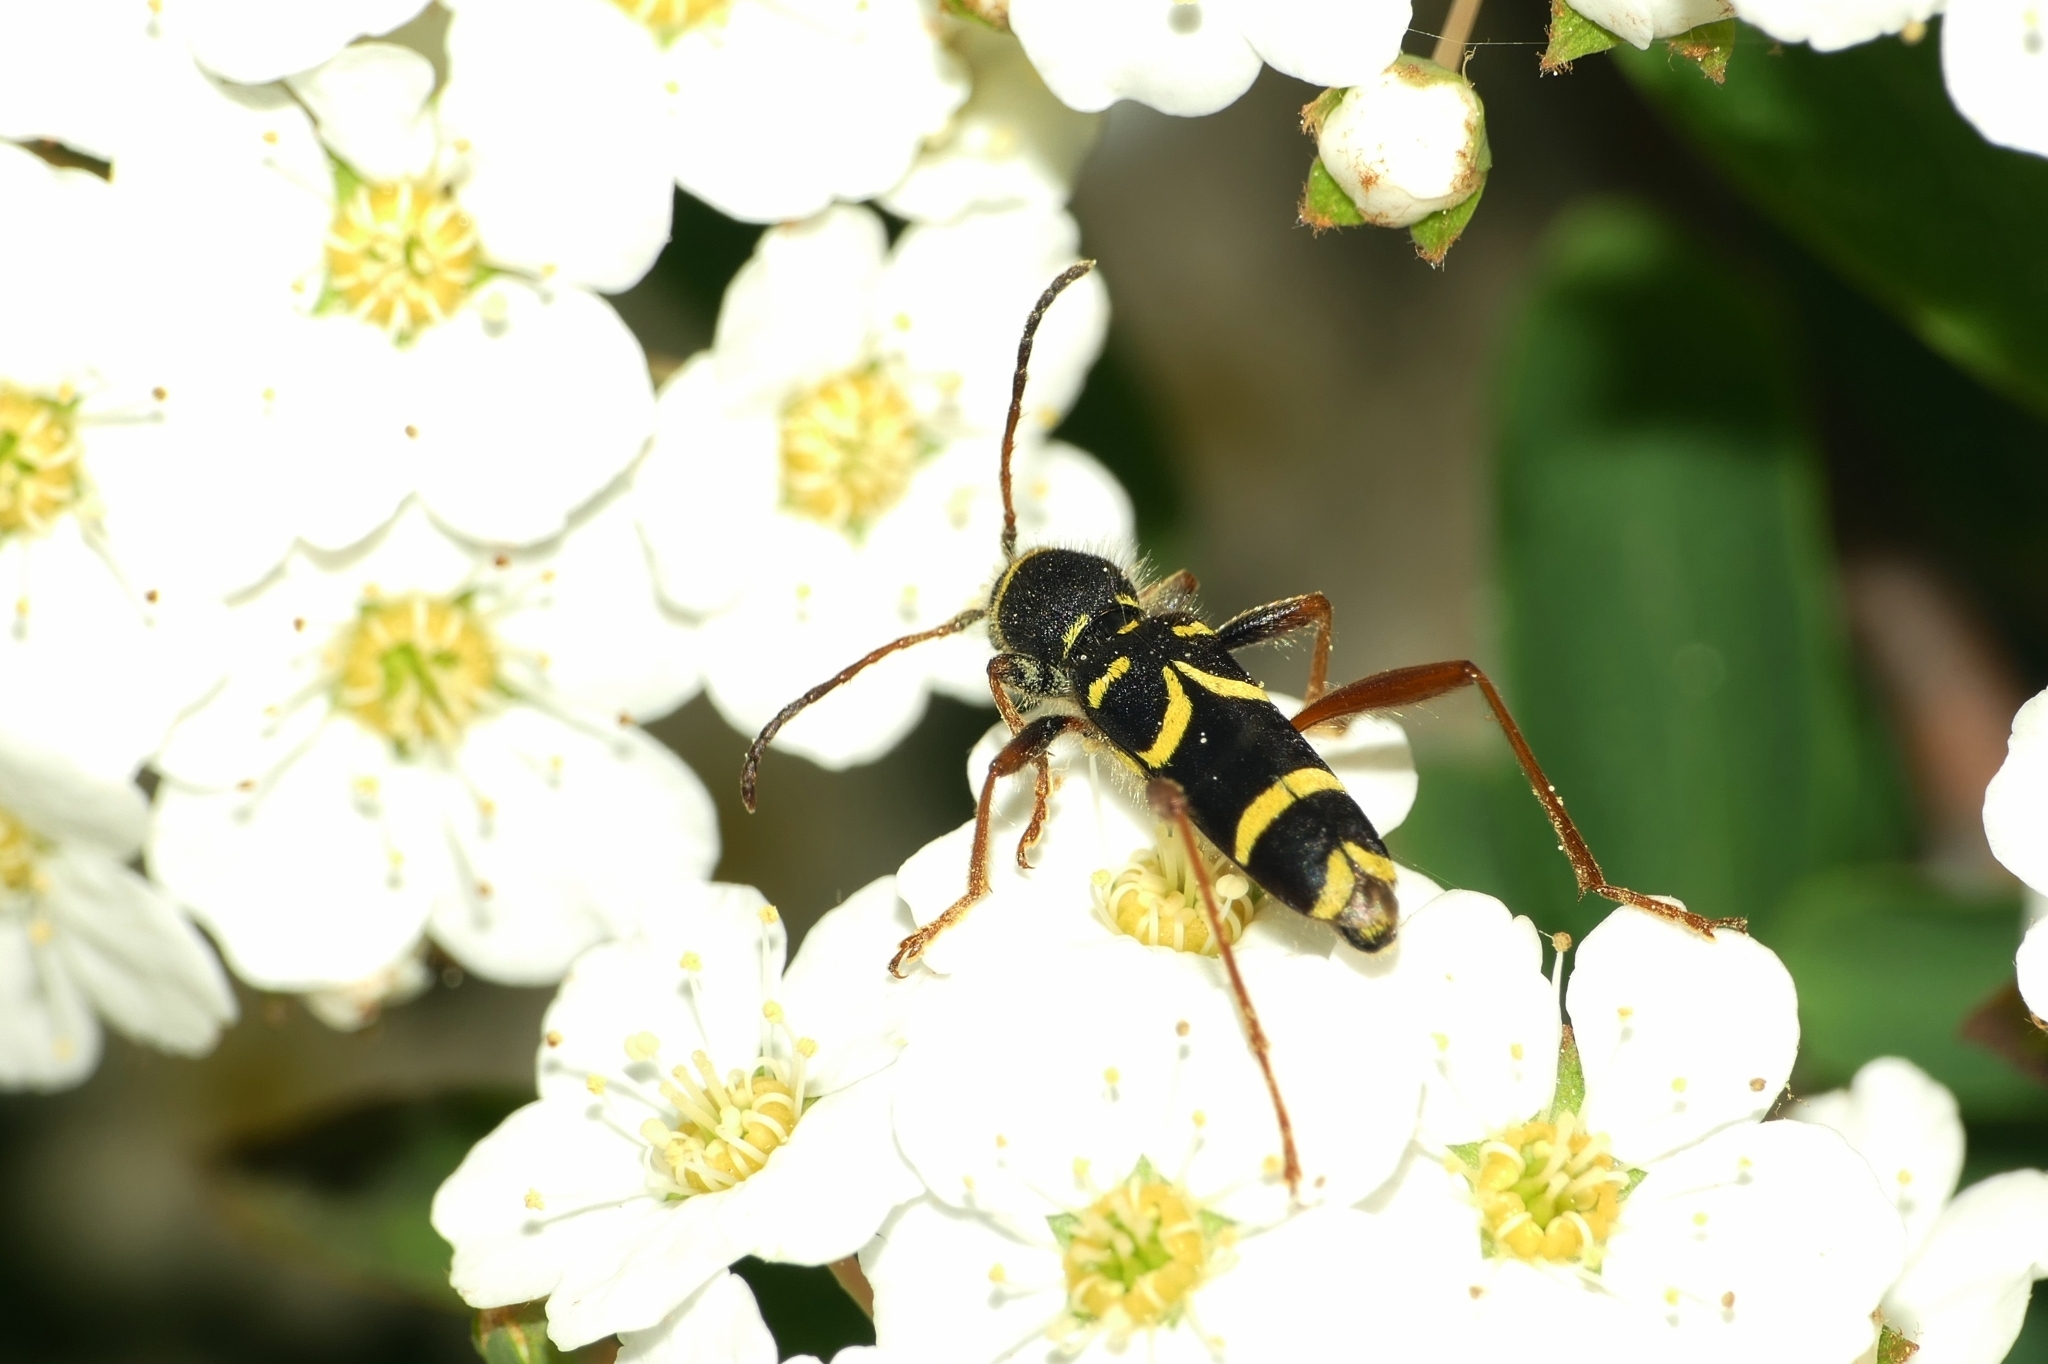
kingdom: Animalia
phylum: Arthropoda
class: Insecta
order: Coleoptera
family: Cerambycidae
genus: Clytus
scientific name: Clytus arietis
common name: Wasp beetle
